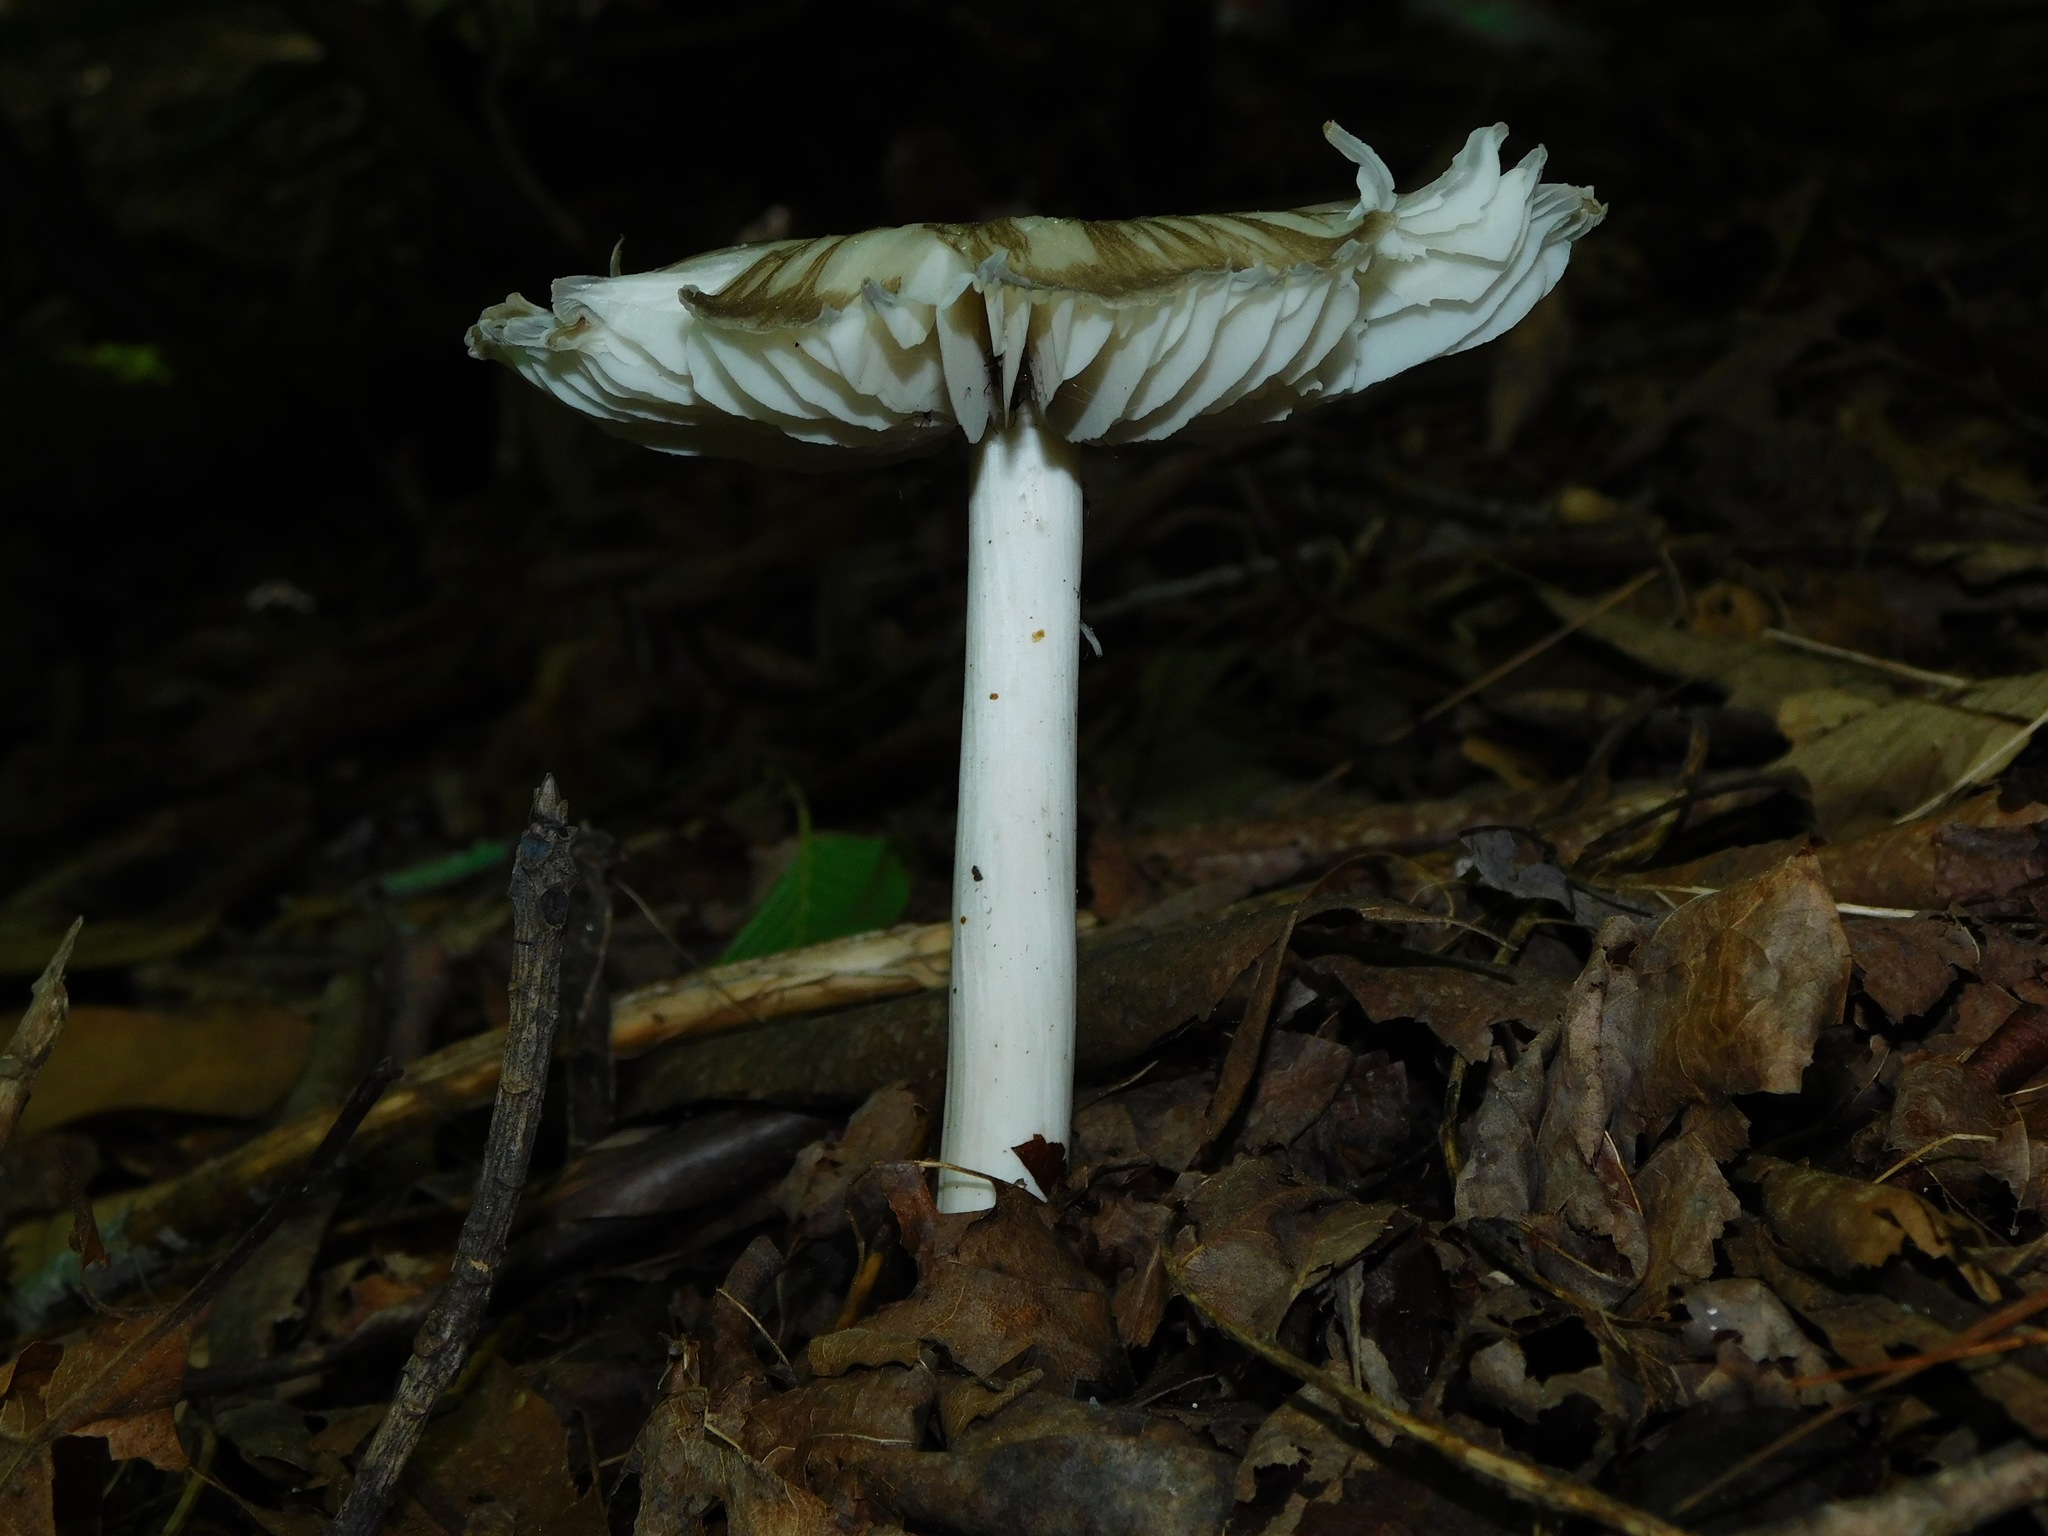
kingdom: Fungi
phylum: Basidiomycota
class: Agaricomycetes
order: Agaricales
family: Tricholomataceae
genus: Megacollybia
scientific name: Megacollybia rodmanii
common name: Eastern american platterful mushroom
